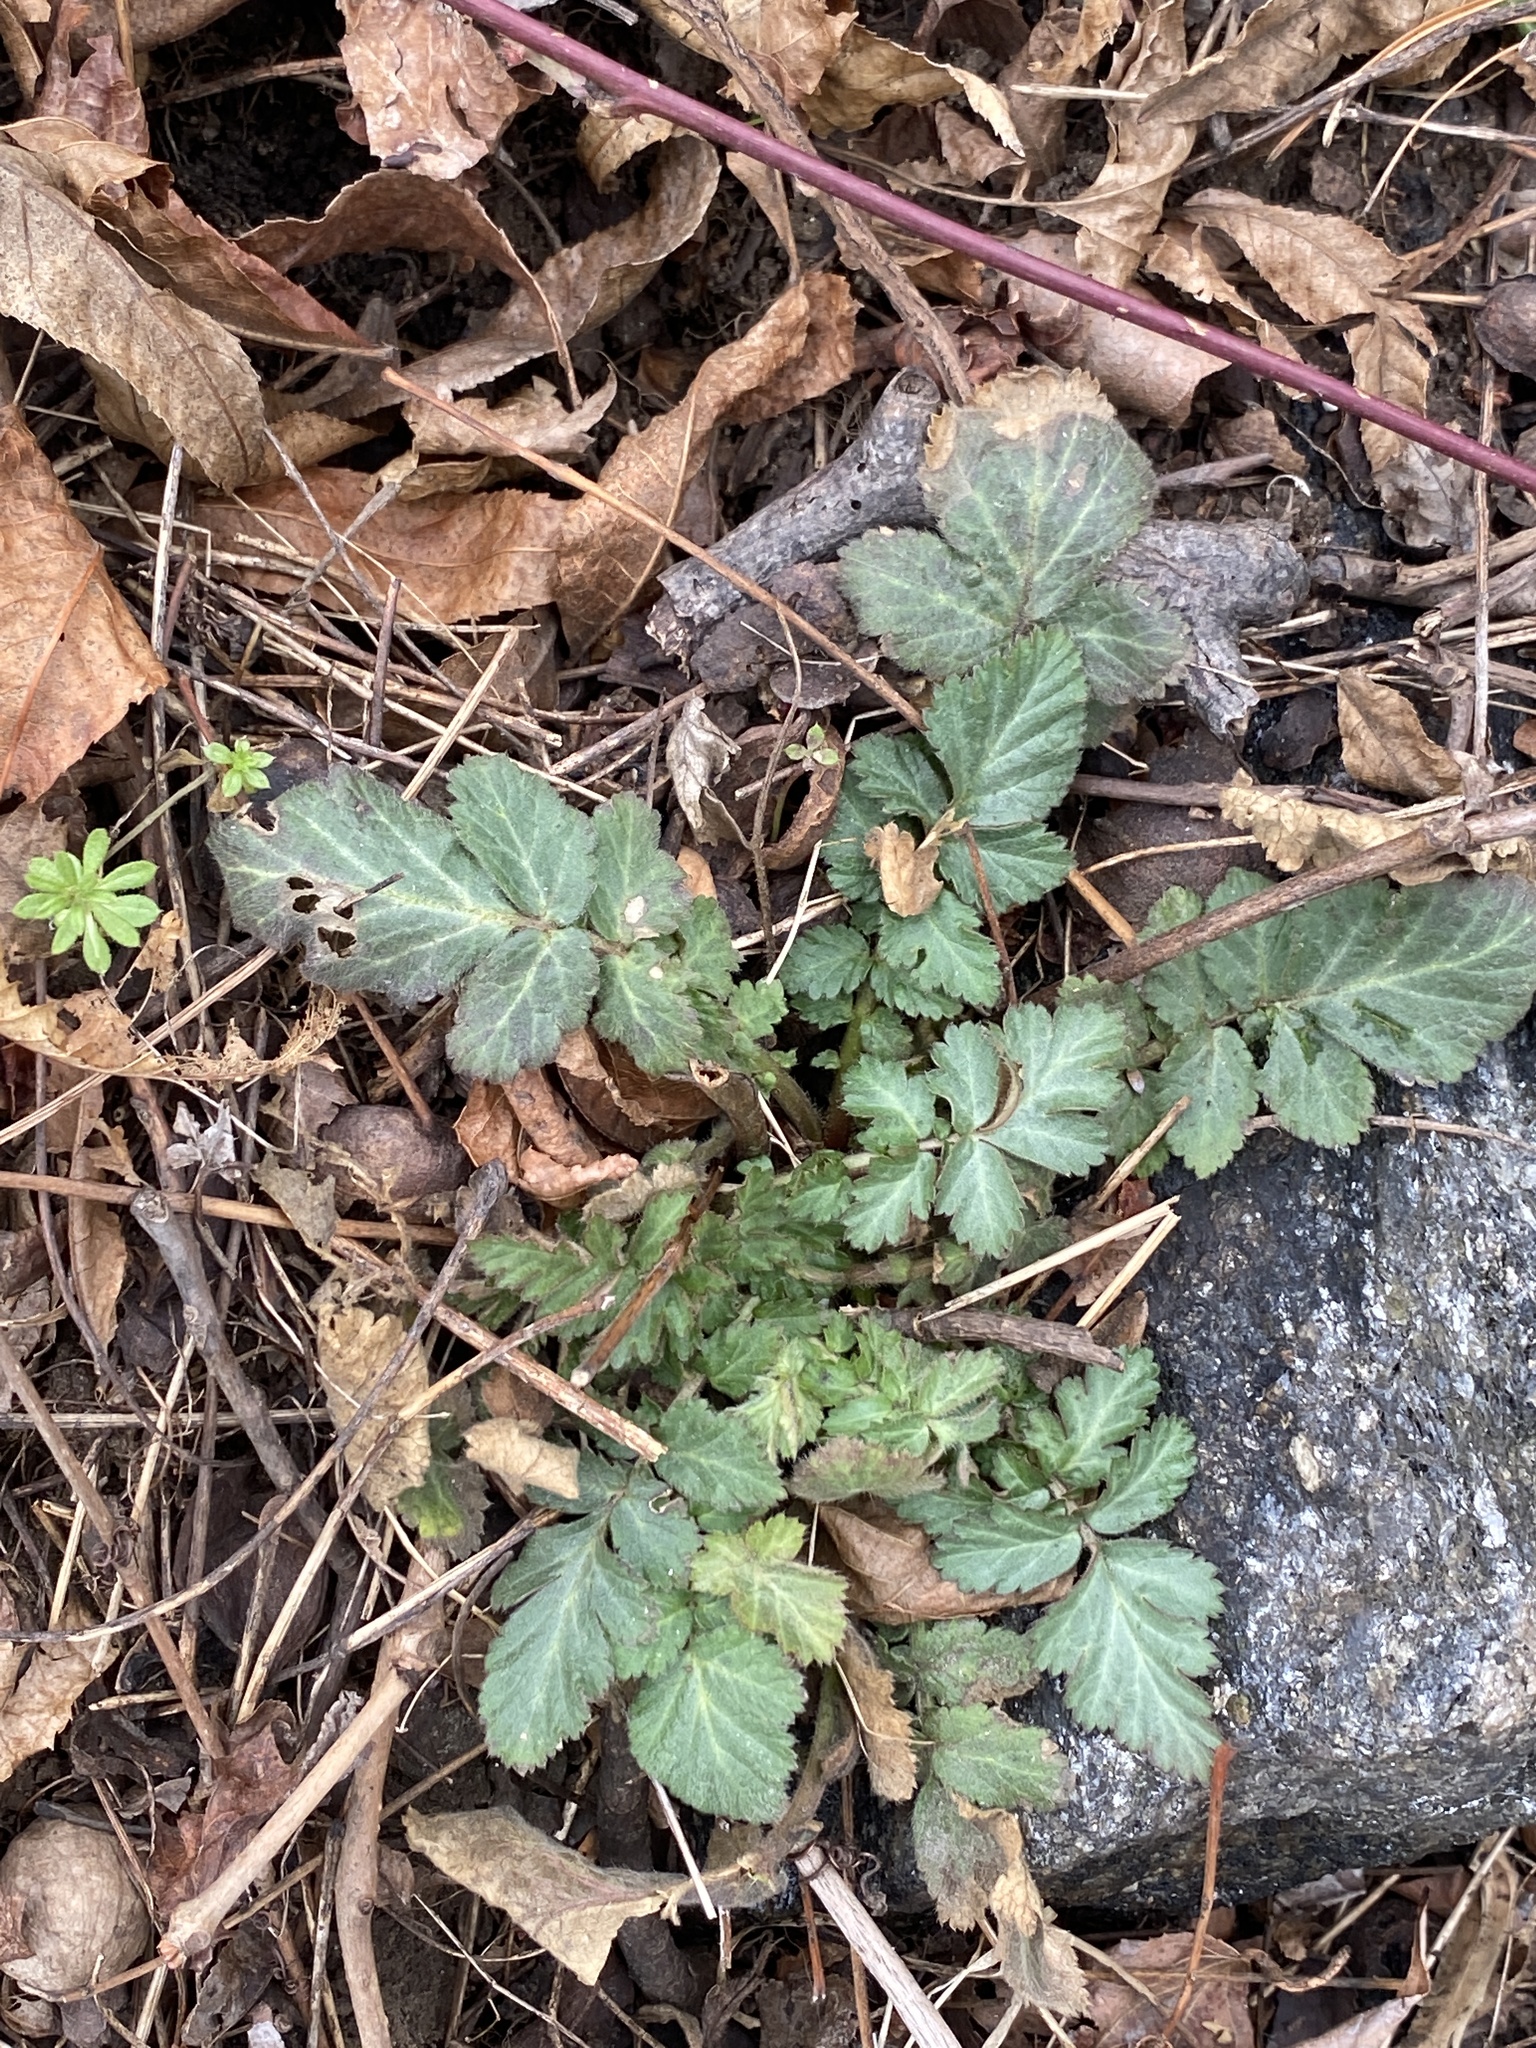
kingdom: Plantae
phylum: Tracheophyta
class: Magnoliopsida
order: Rosales
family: Rosaceae
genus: Geum
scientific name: Geum canadense
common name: White avens
